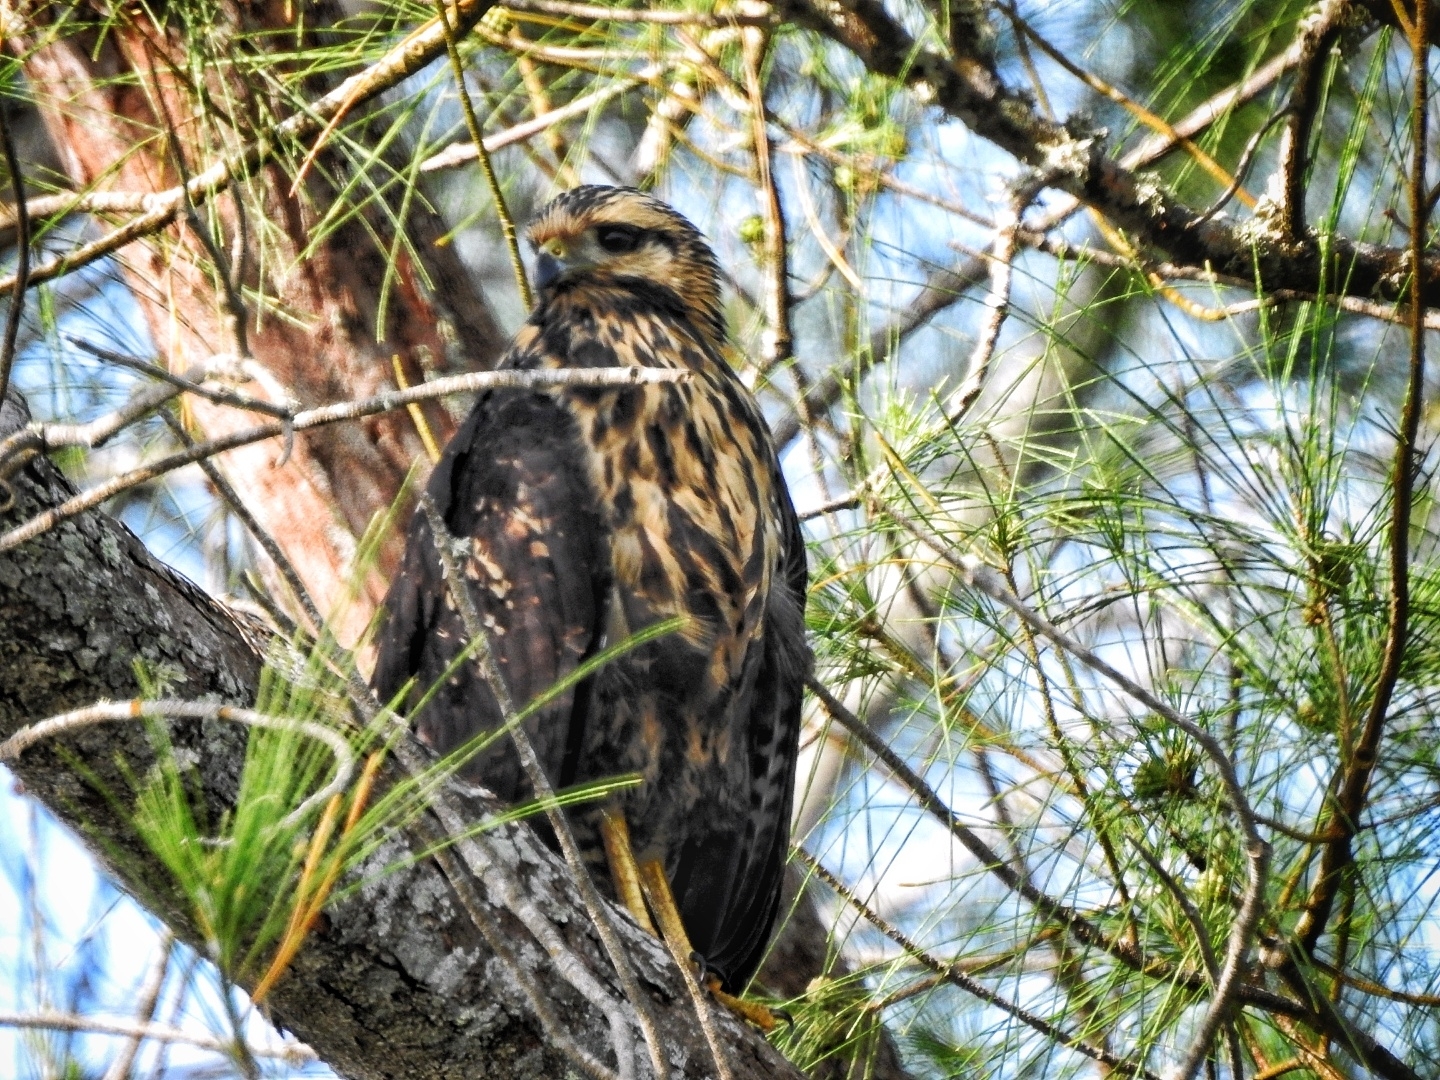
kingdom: Animalia
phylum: Chordata
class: Aves
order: Accipitriformes
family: Accipitridae
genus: Buteogallus
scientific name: Buteogallus anthracinus
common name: Common black hawk
